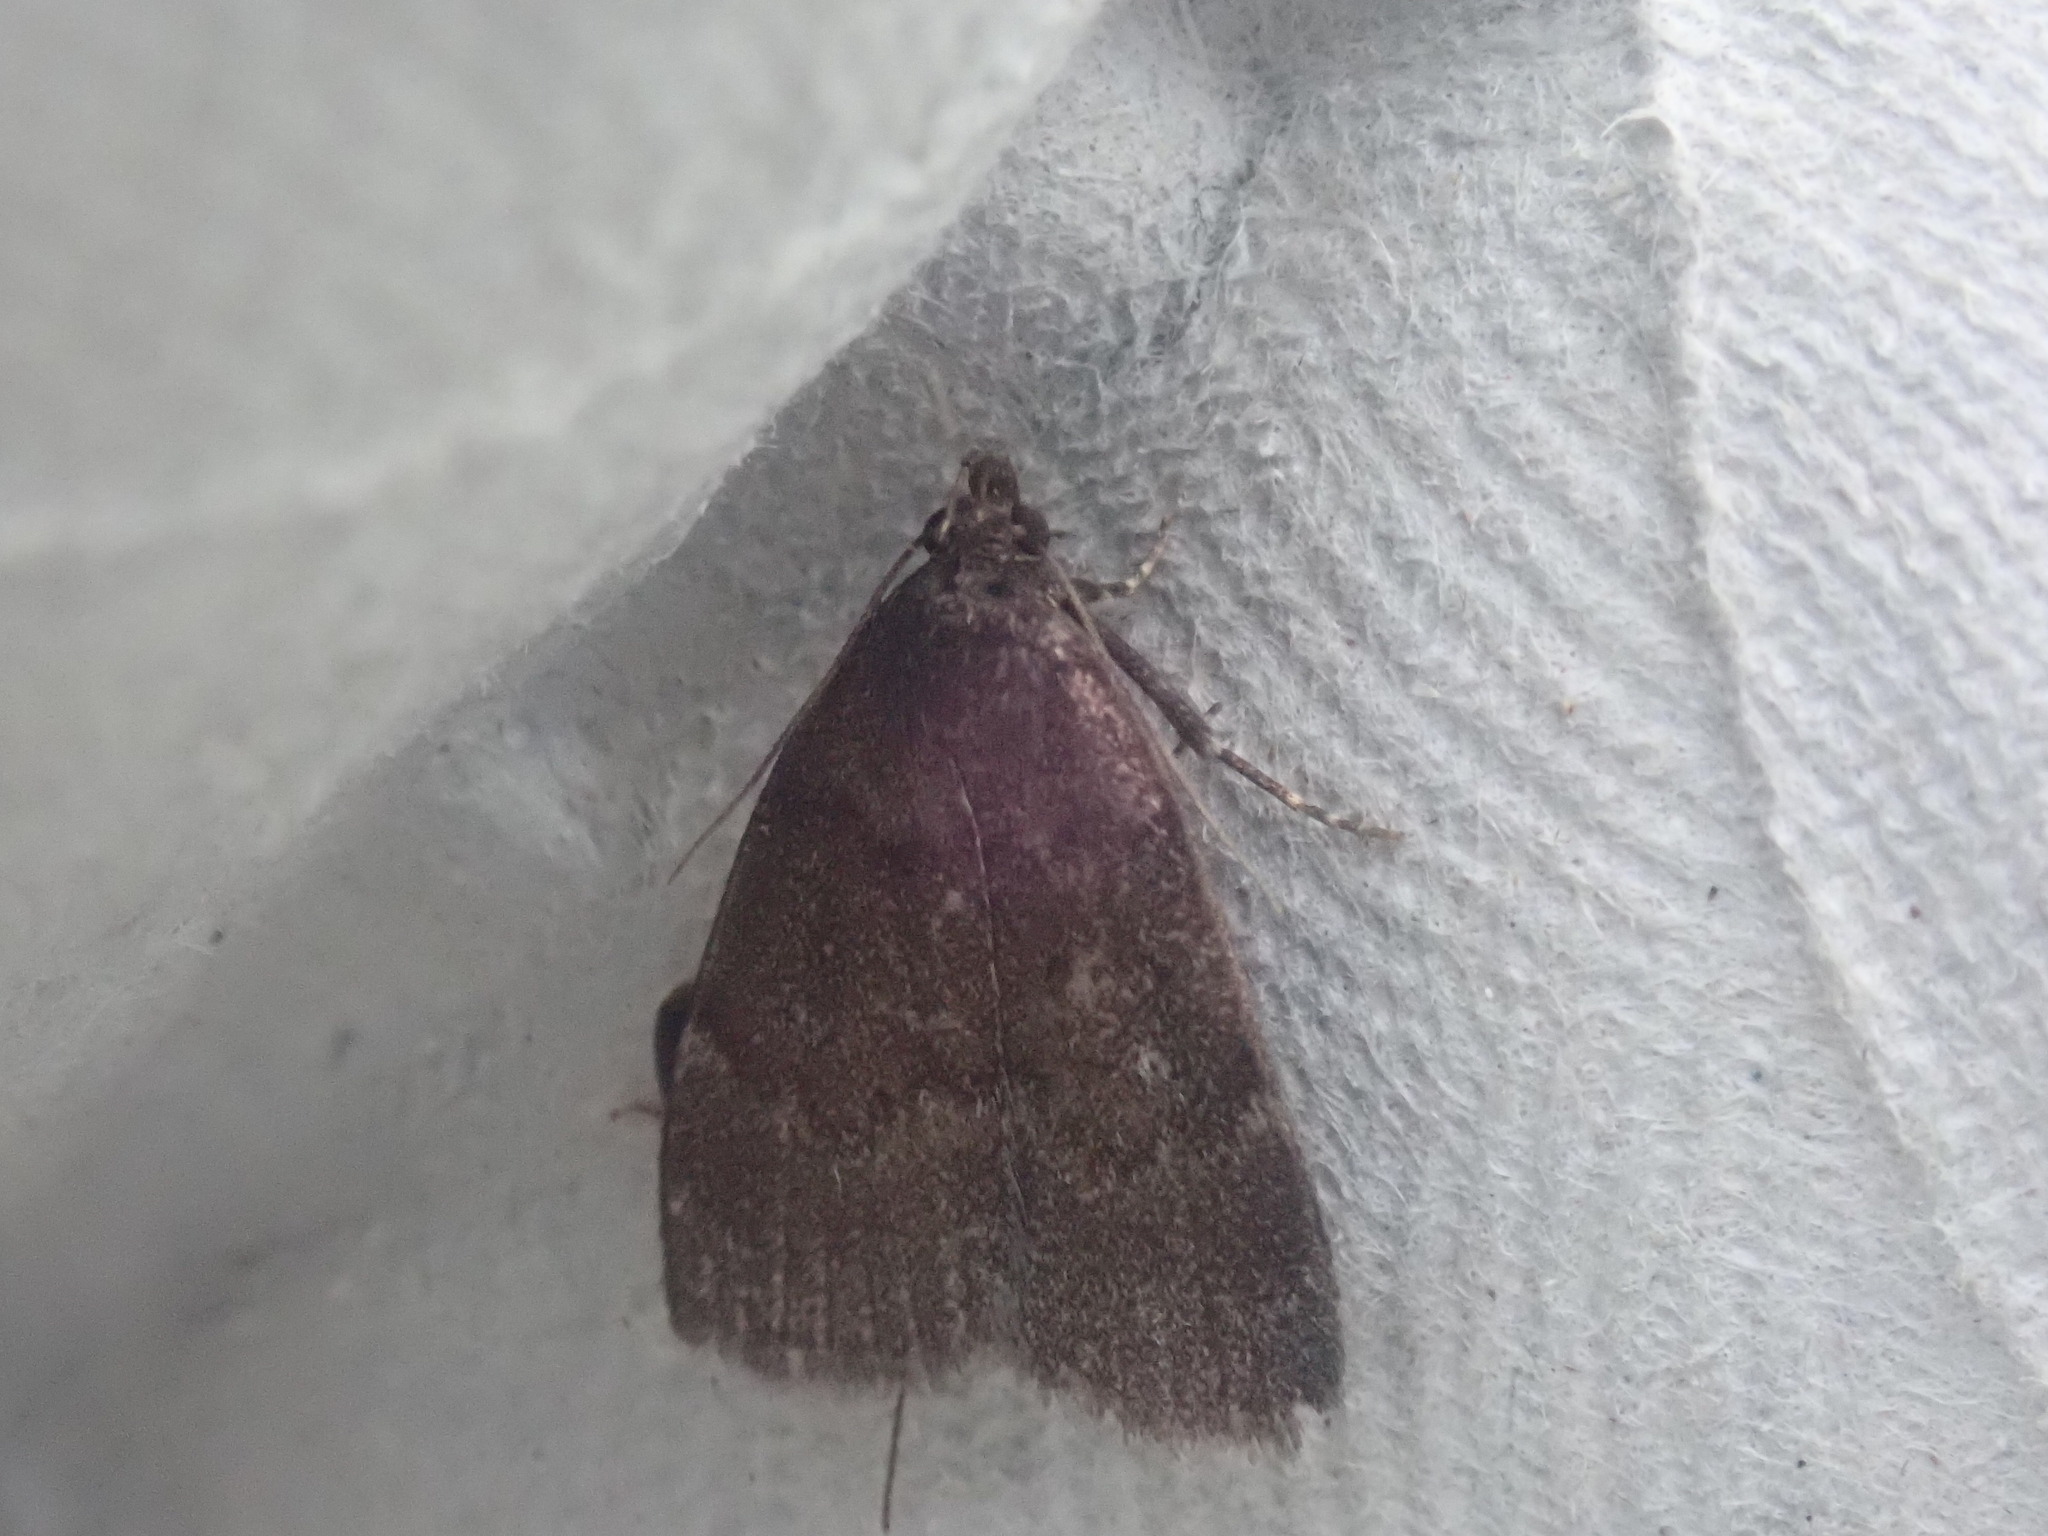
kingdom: Animalia
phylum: Arthropoda
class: Insecta
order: Lepidoptera
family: Erebidae
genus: Idia
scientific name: Idia rotundalis
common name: Rotund idia moth
